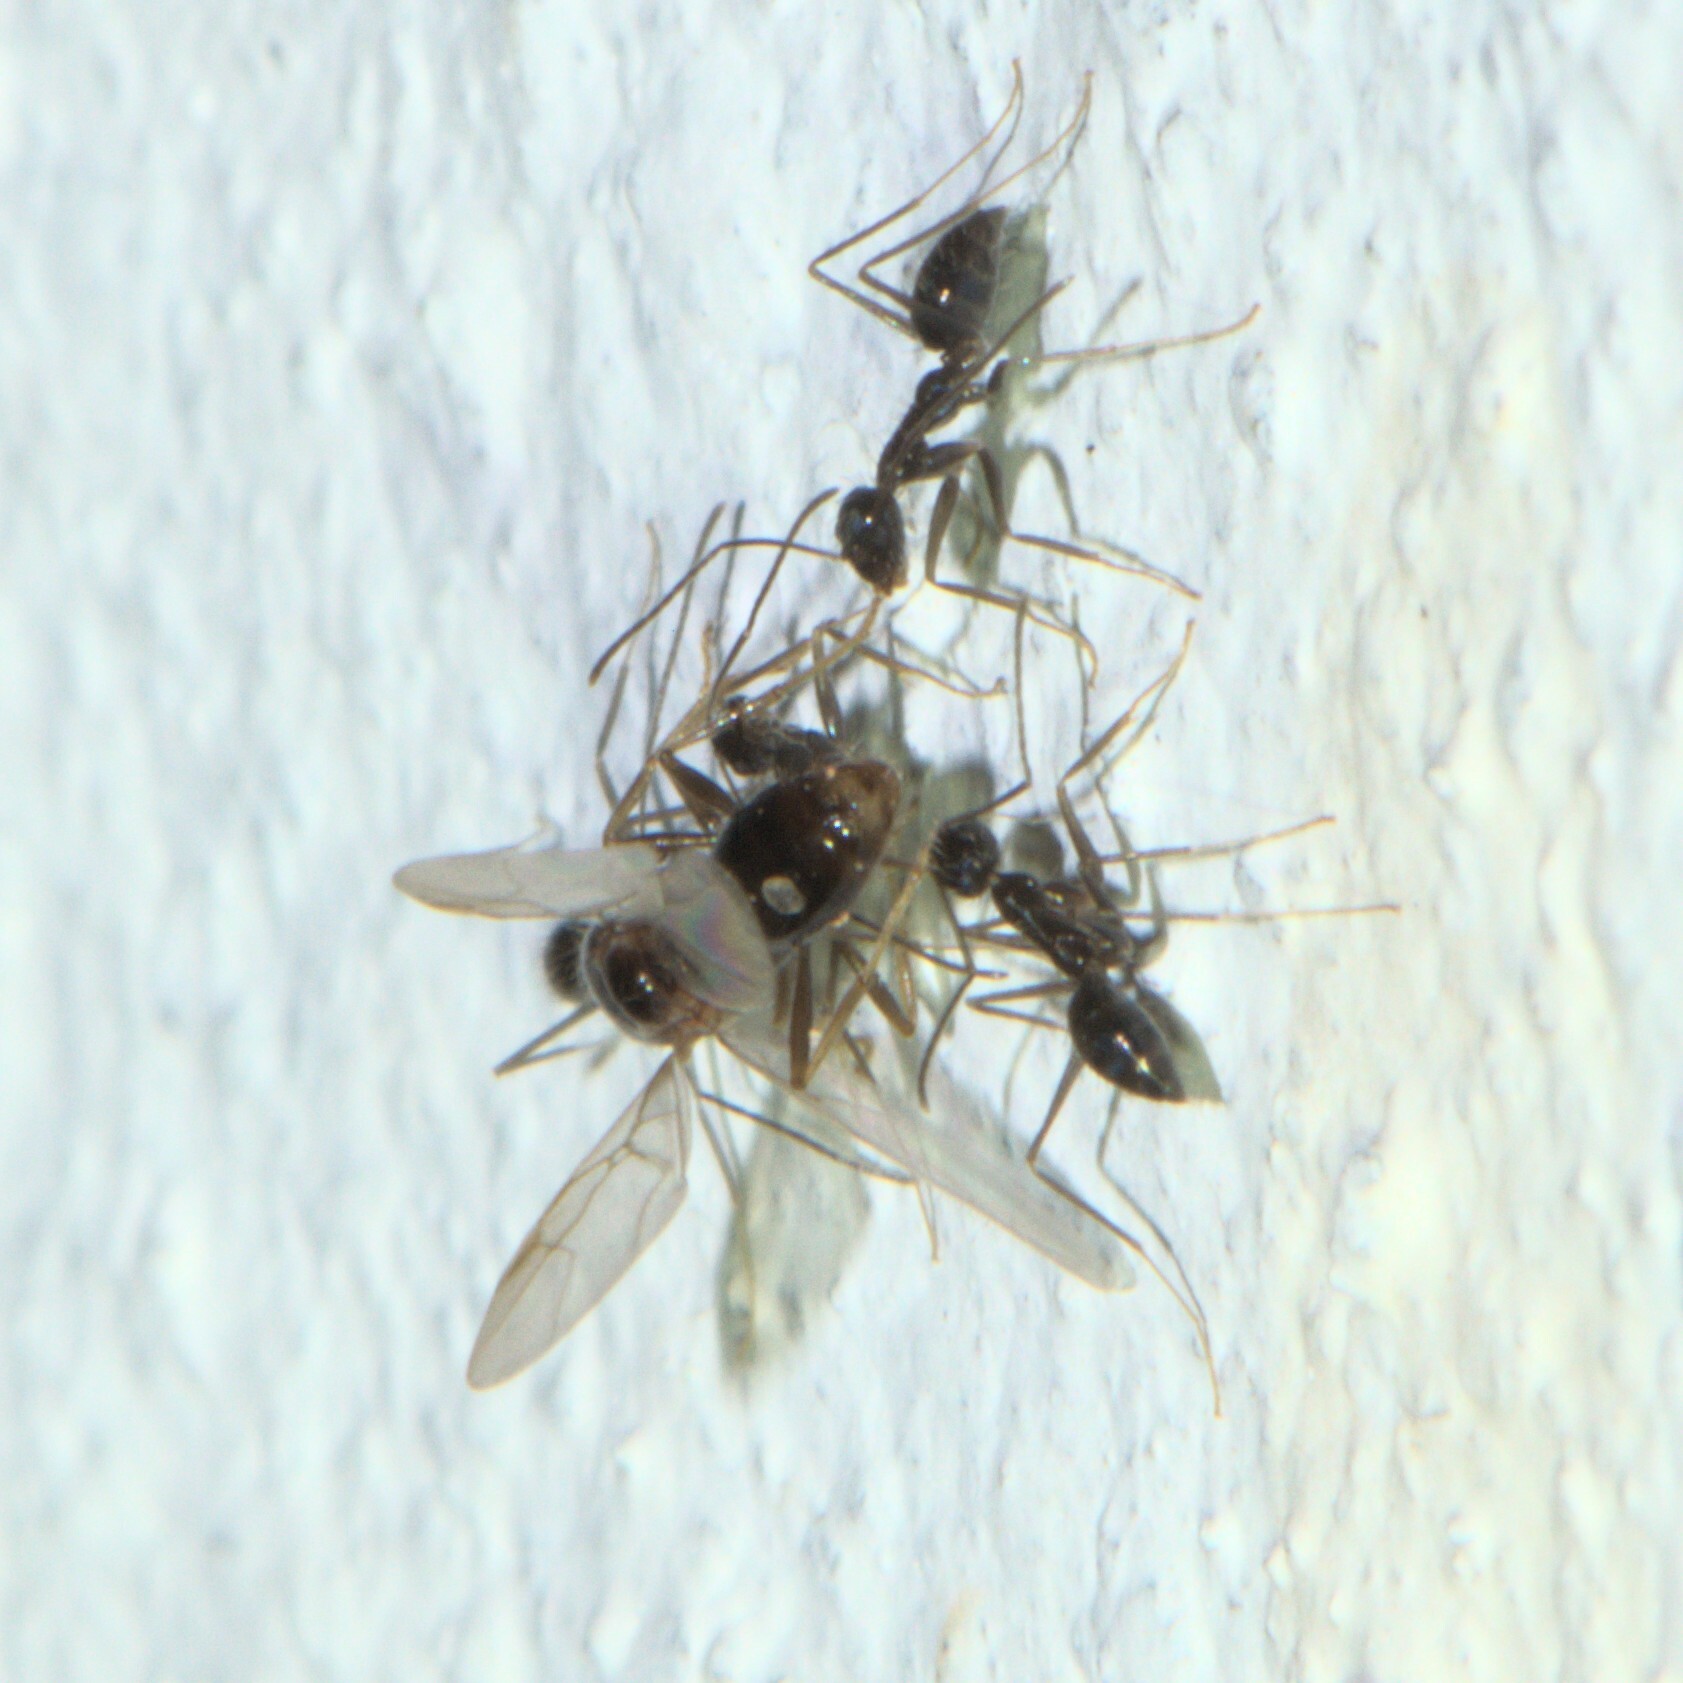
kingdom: Animalia
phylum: Arthropoda
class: Insecta
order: Hymenoptera
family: Formicidae
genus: Paratrechina
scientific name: Paratrechina longicornis
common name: Longhorned crazy ant
